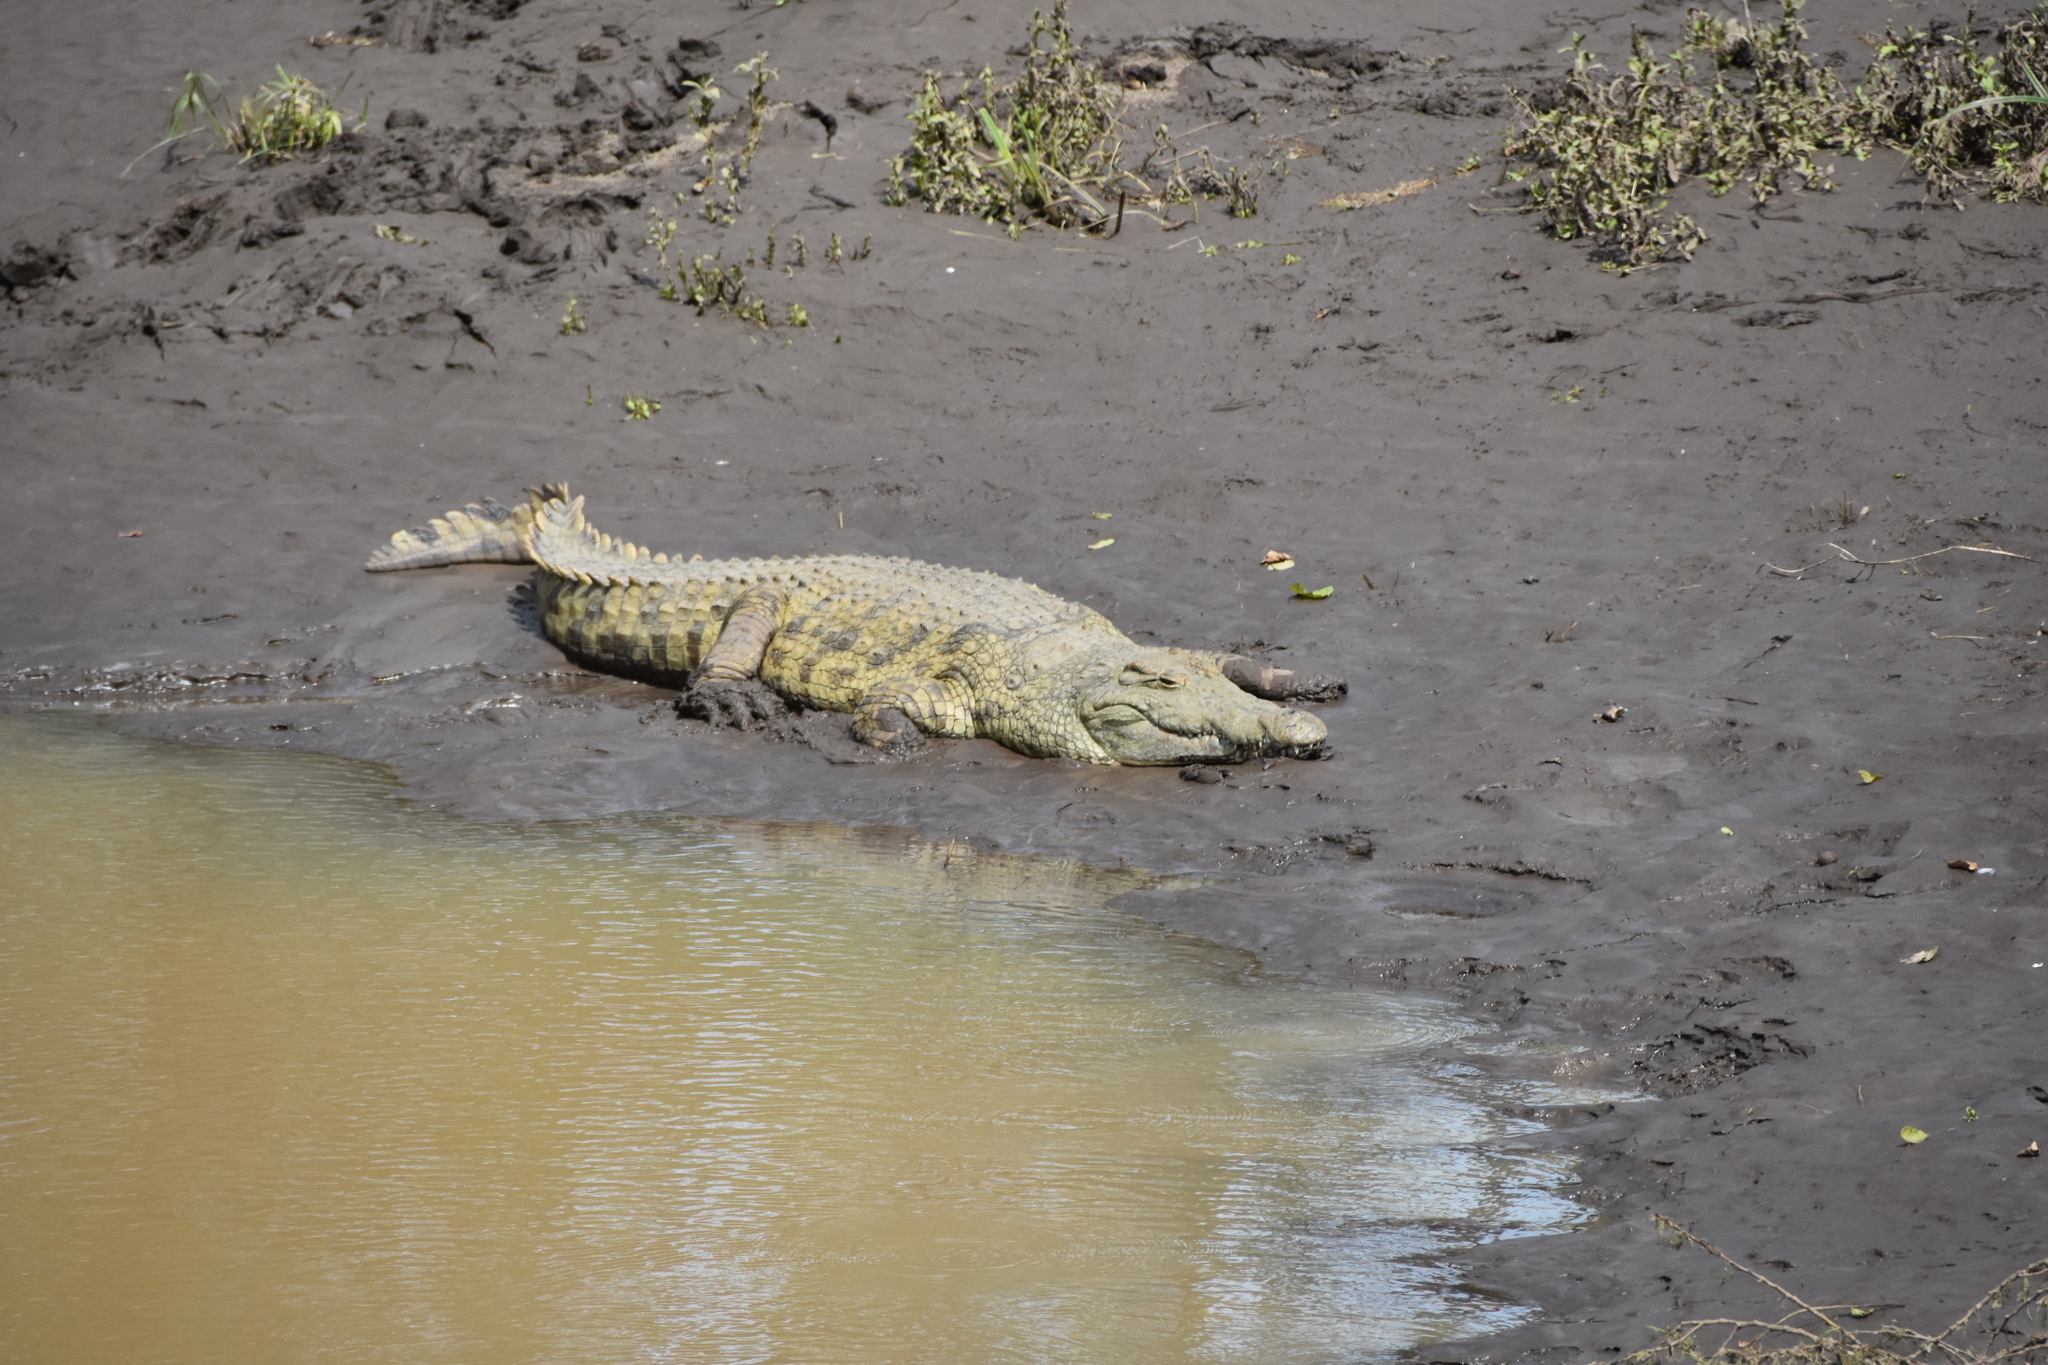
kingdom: Animalia
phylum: Chordata
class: Crocodylia
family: Crocodylidae
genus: Crocodylus
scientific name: Crocodylus niloticus
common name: Nile crocodile
